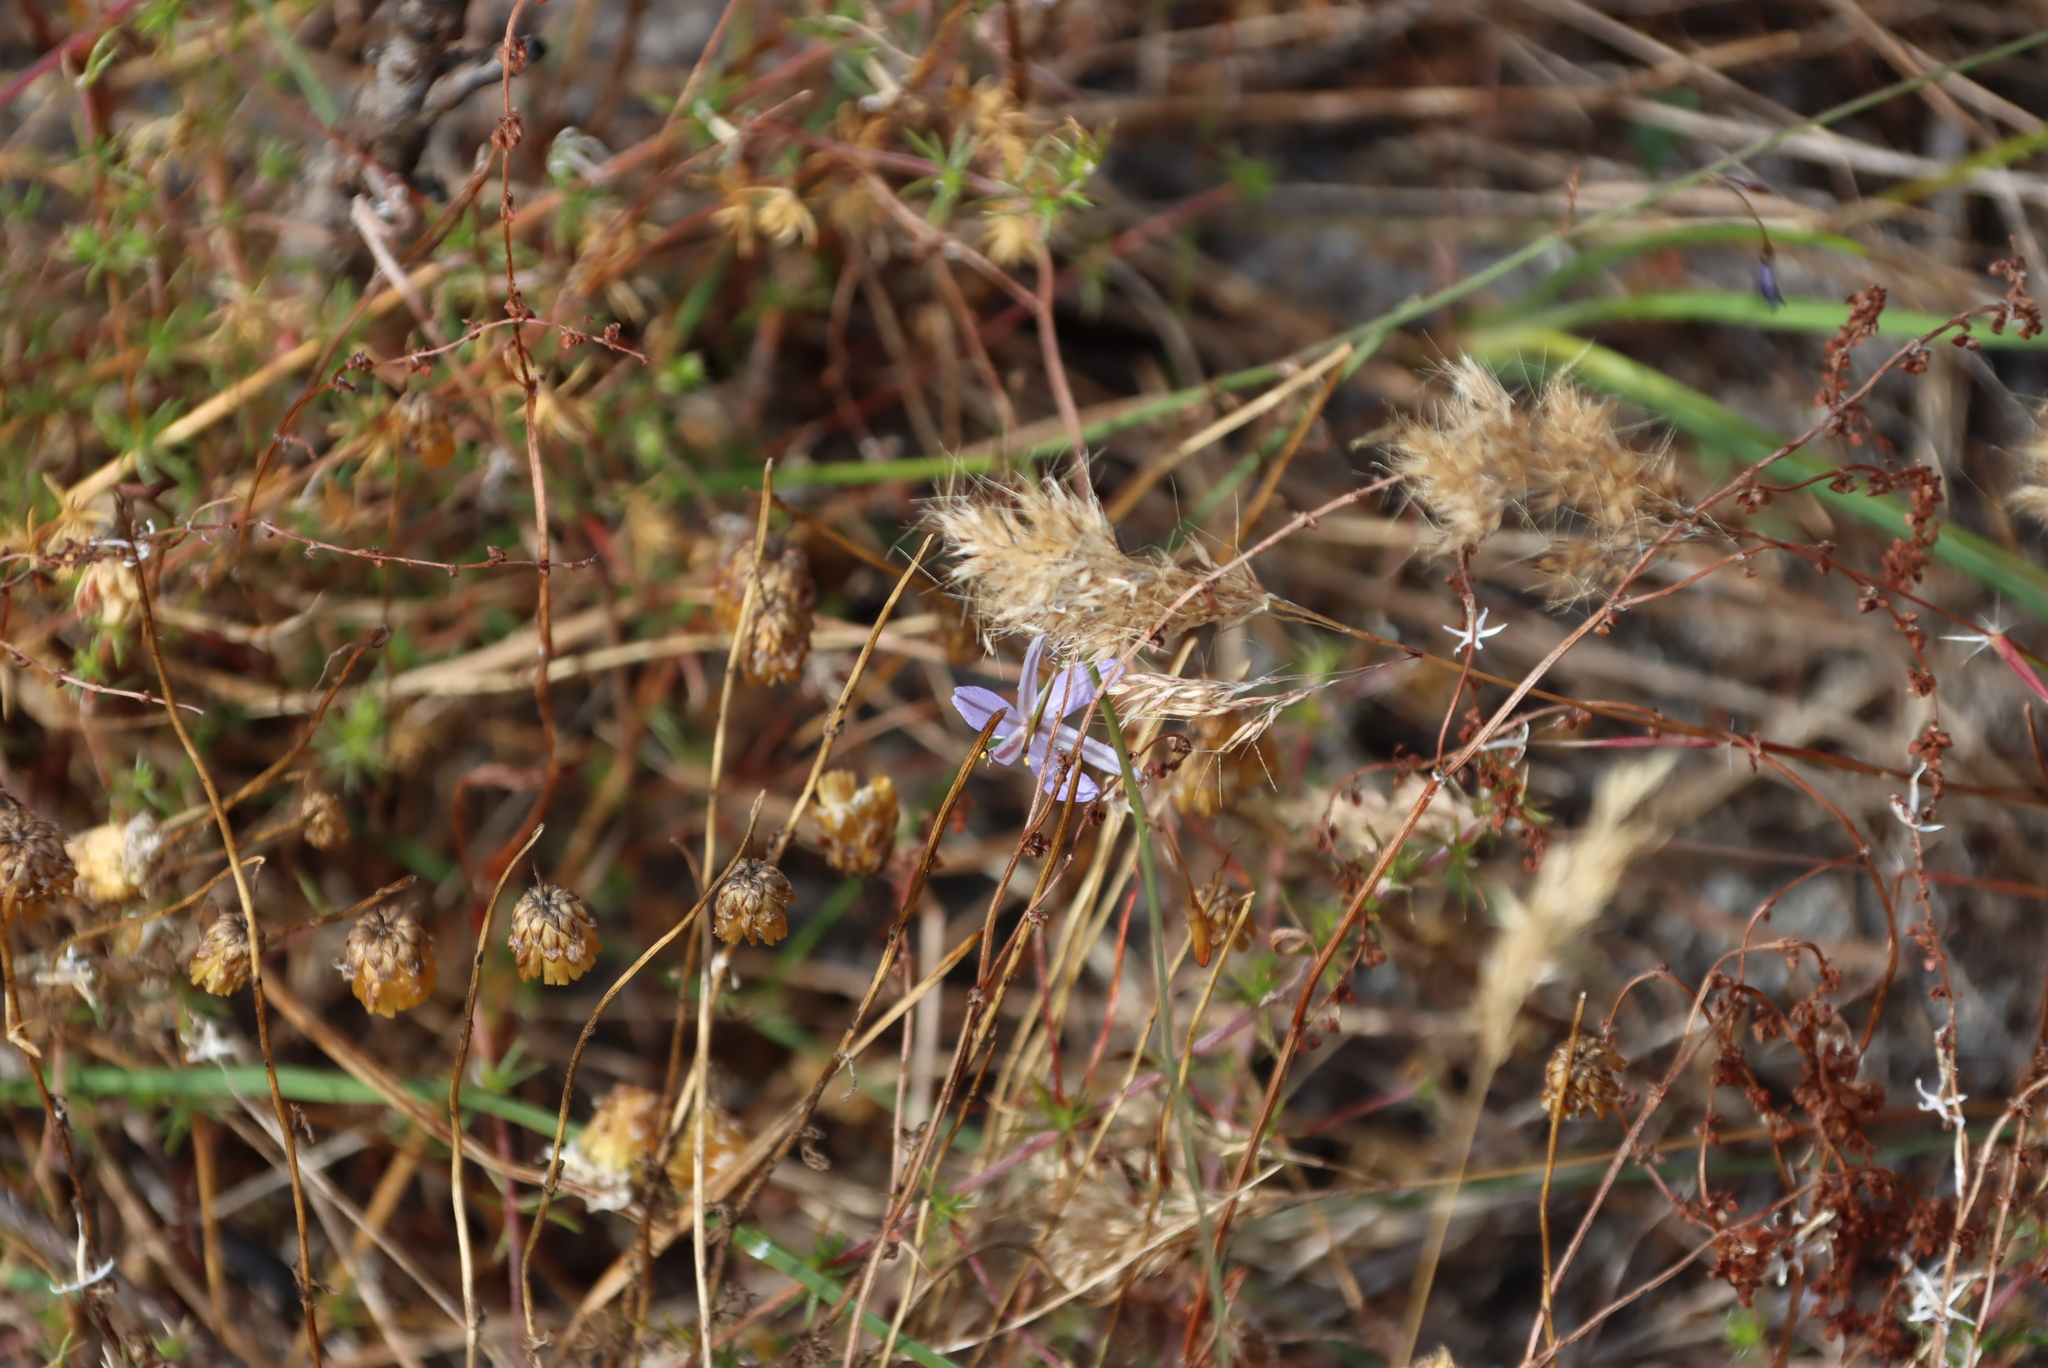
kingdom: Plantae
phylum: Tracheophyta
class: Liliopsida
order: Asparagales
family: Asphodelaceae
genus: Caesia
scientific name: Caesia contorta
